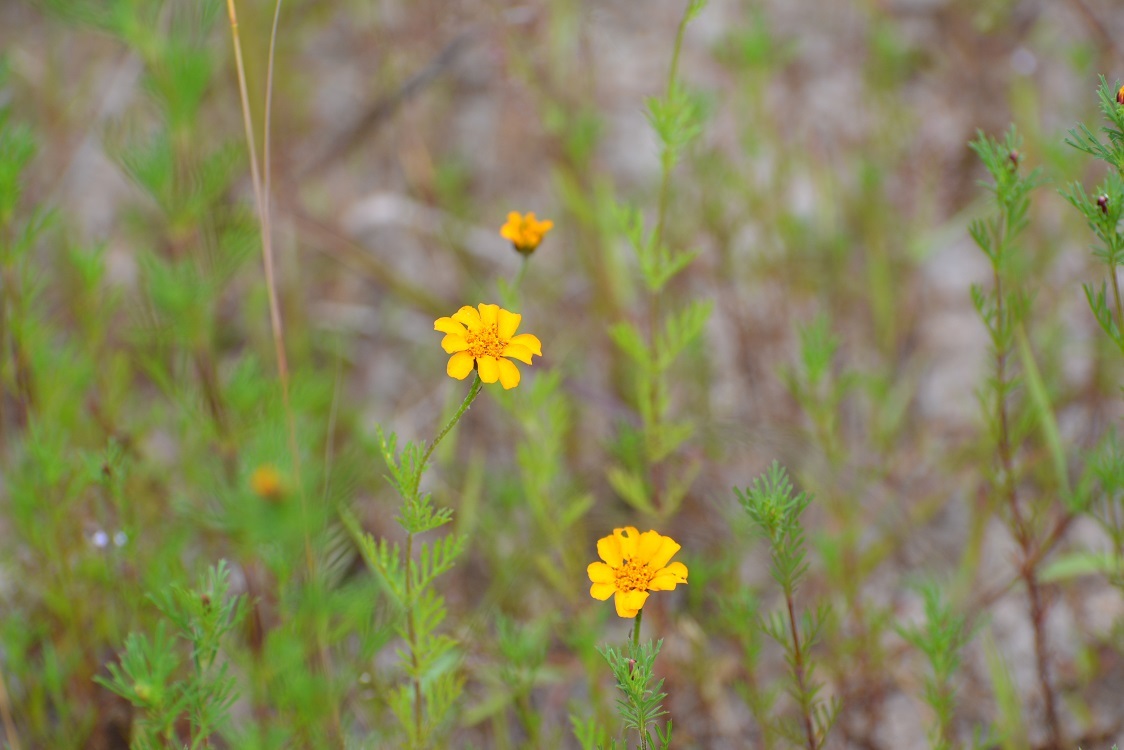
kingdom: Plantae
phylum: Tracheophyta
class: Magnoliopsida
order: Asterales
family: Asteraceae
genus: Dyssodia
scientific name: Dyssodia decipiens
